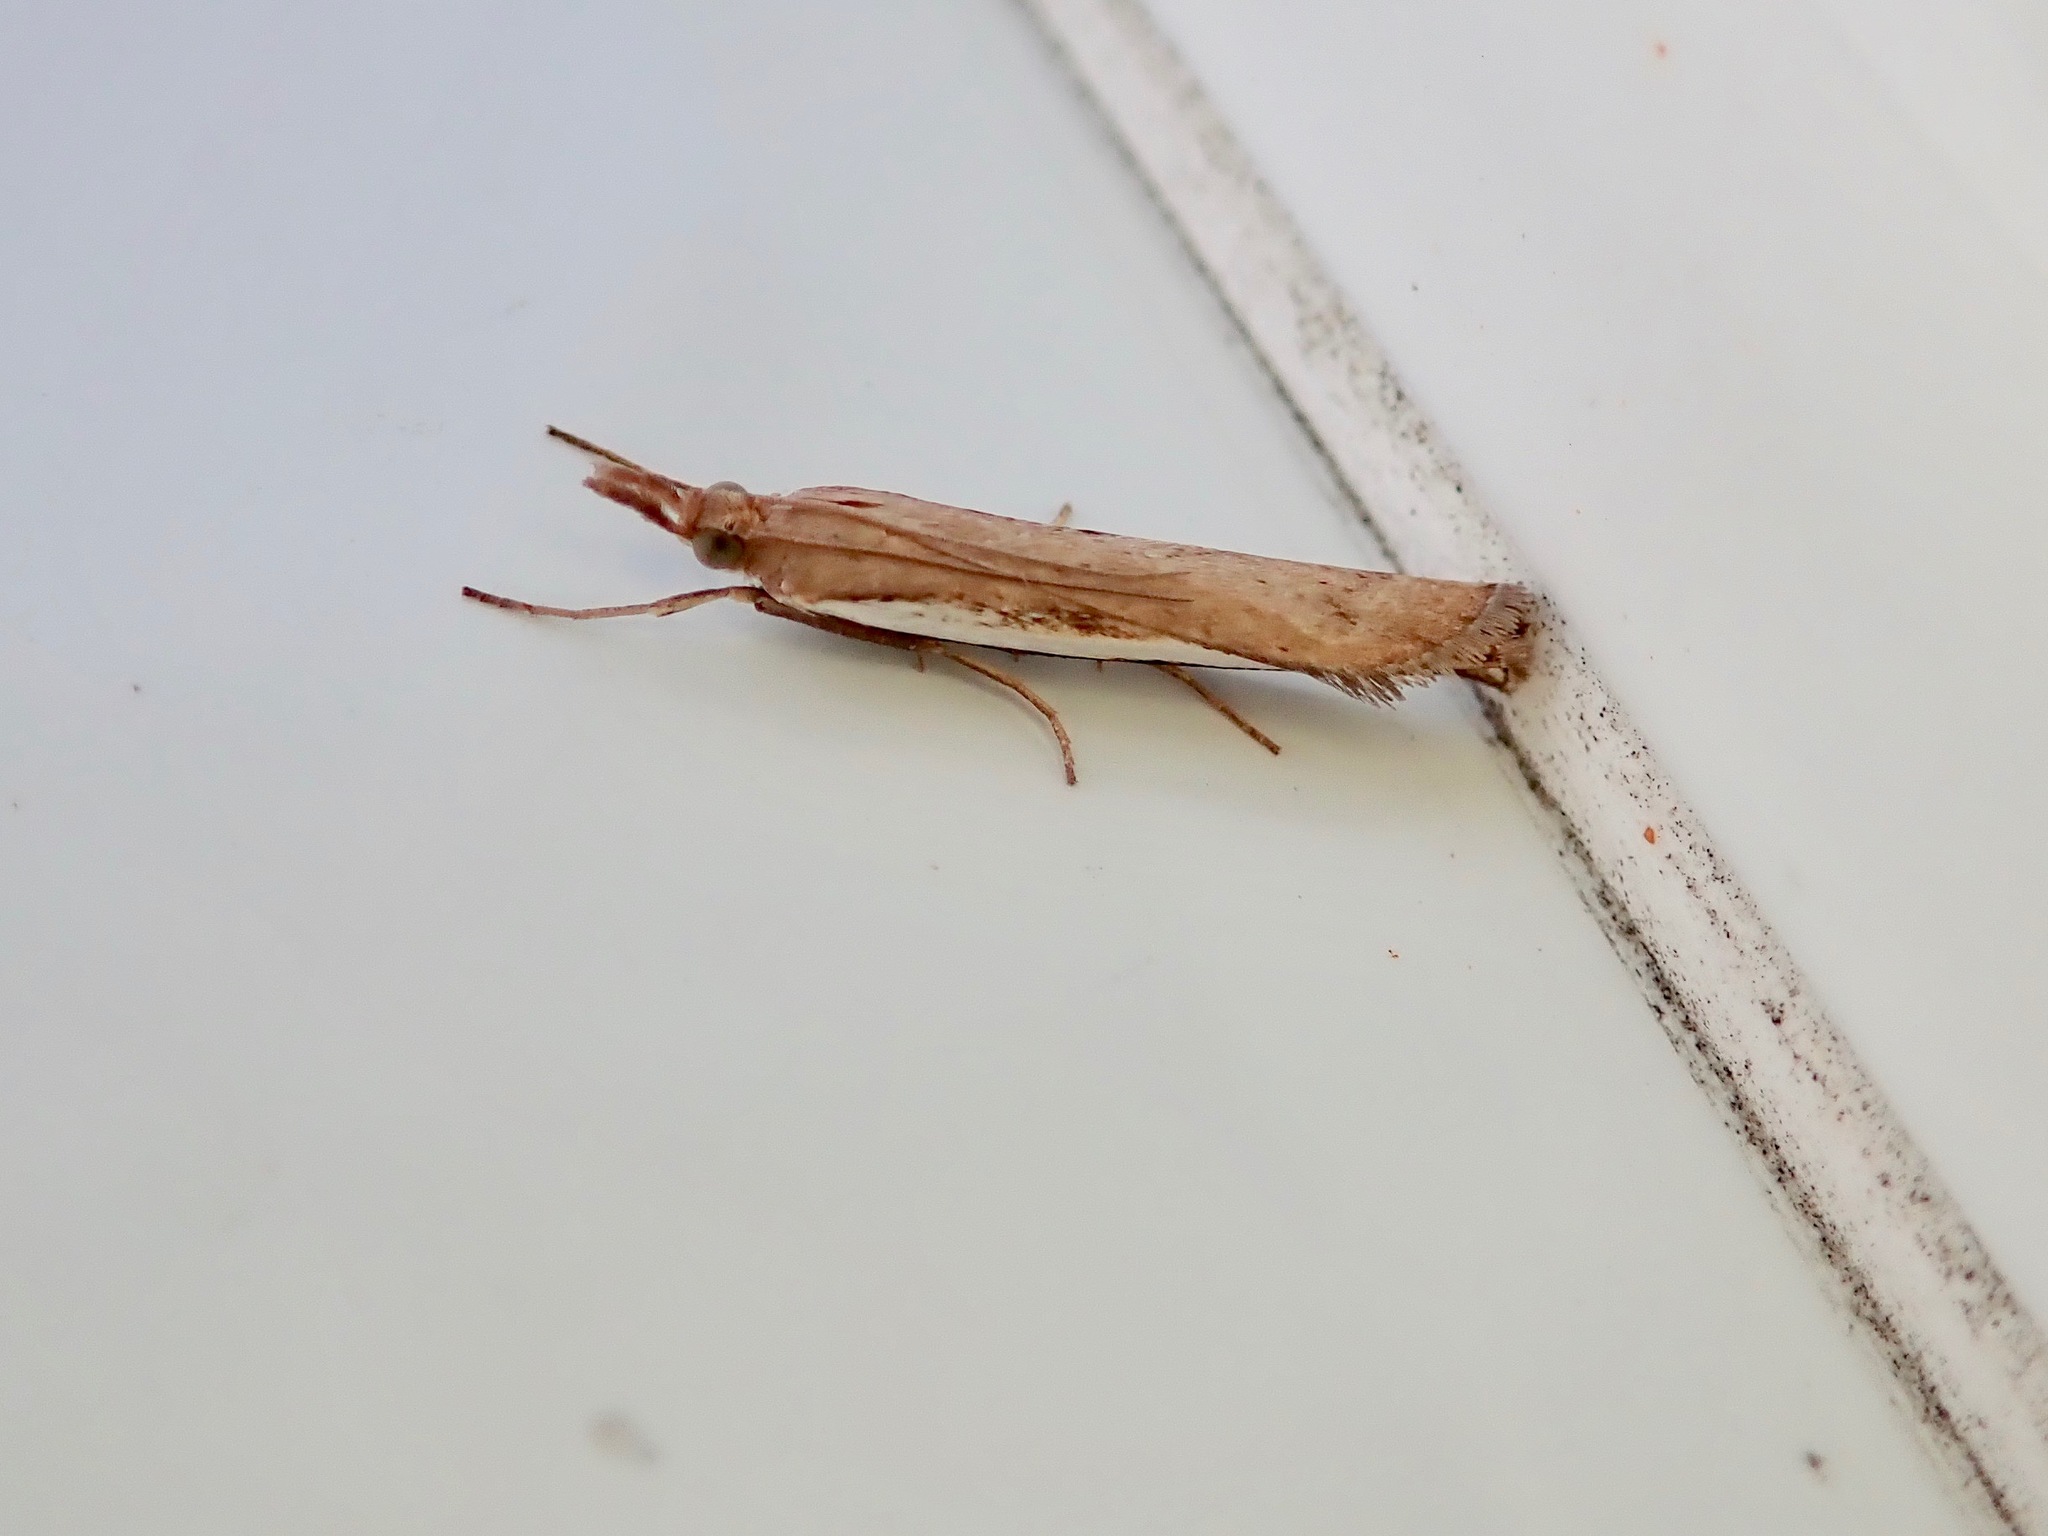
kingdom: Animalia
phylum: Arthropoda
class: Insecta
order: Lepidoptera
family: Crambidae
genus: Orocrambus
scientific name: Orocrambus flexuosellus
